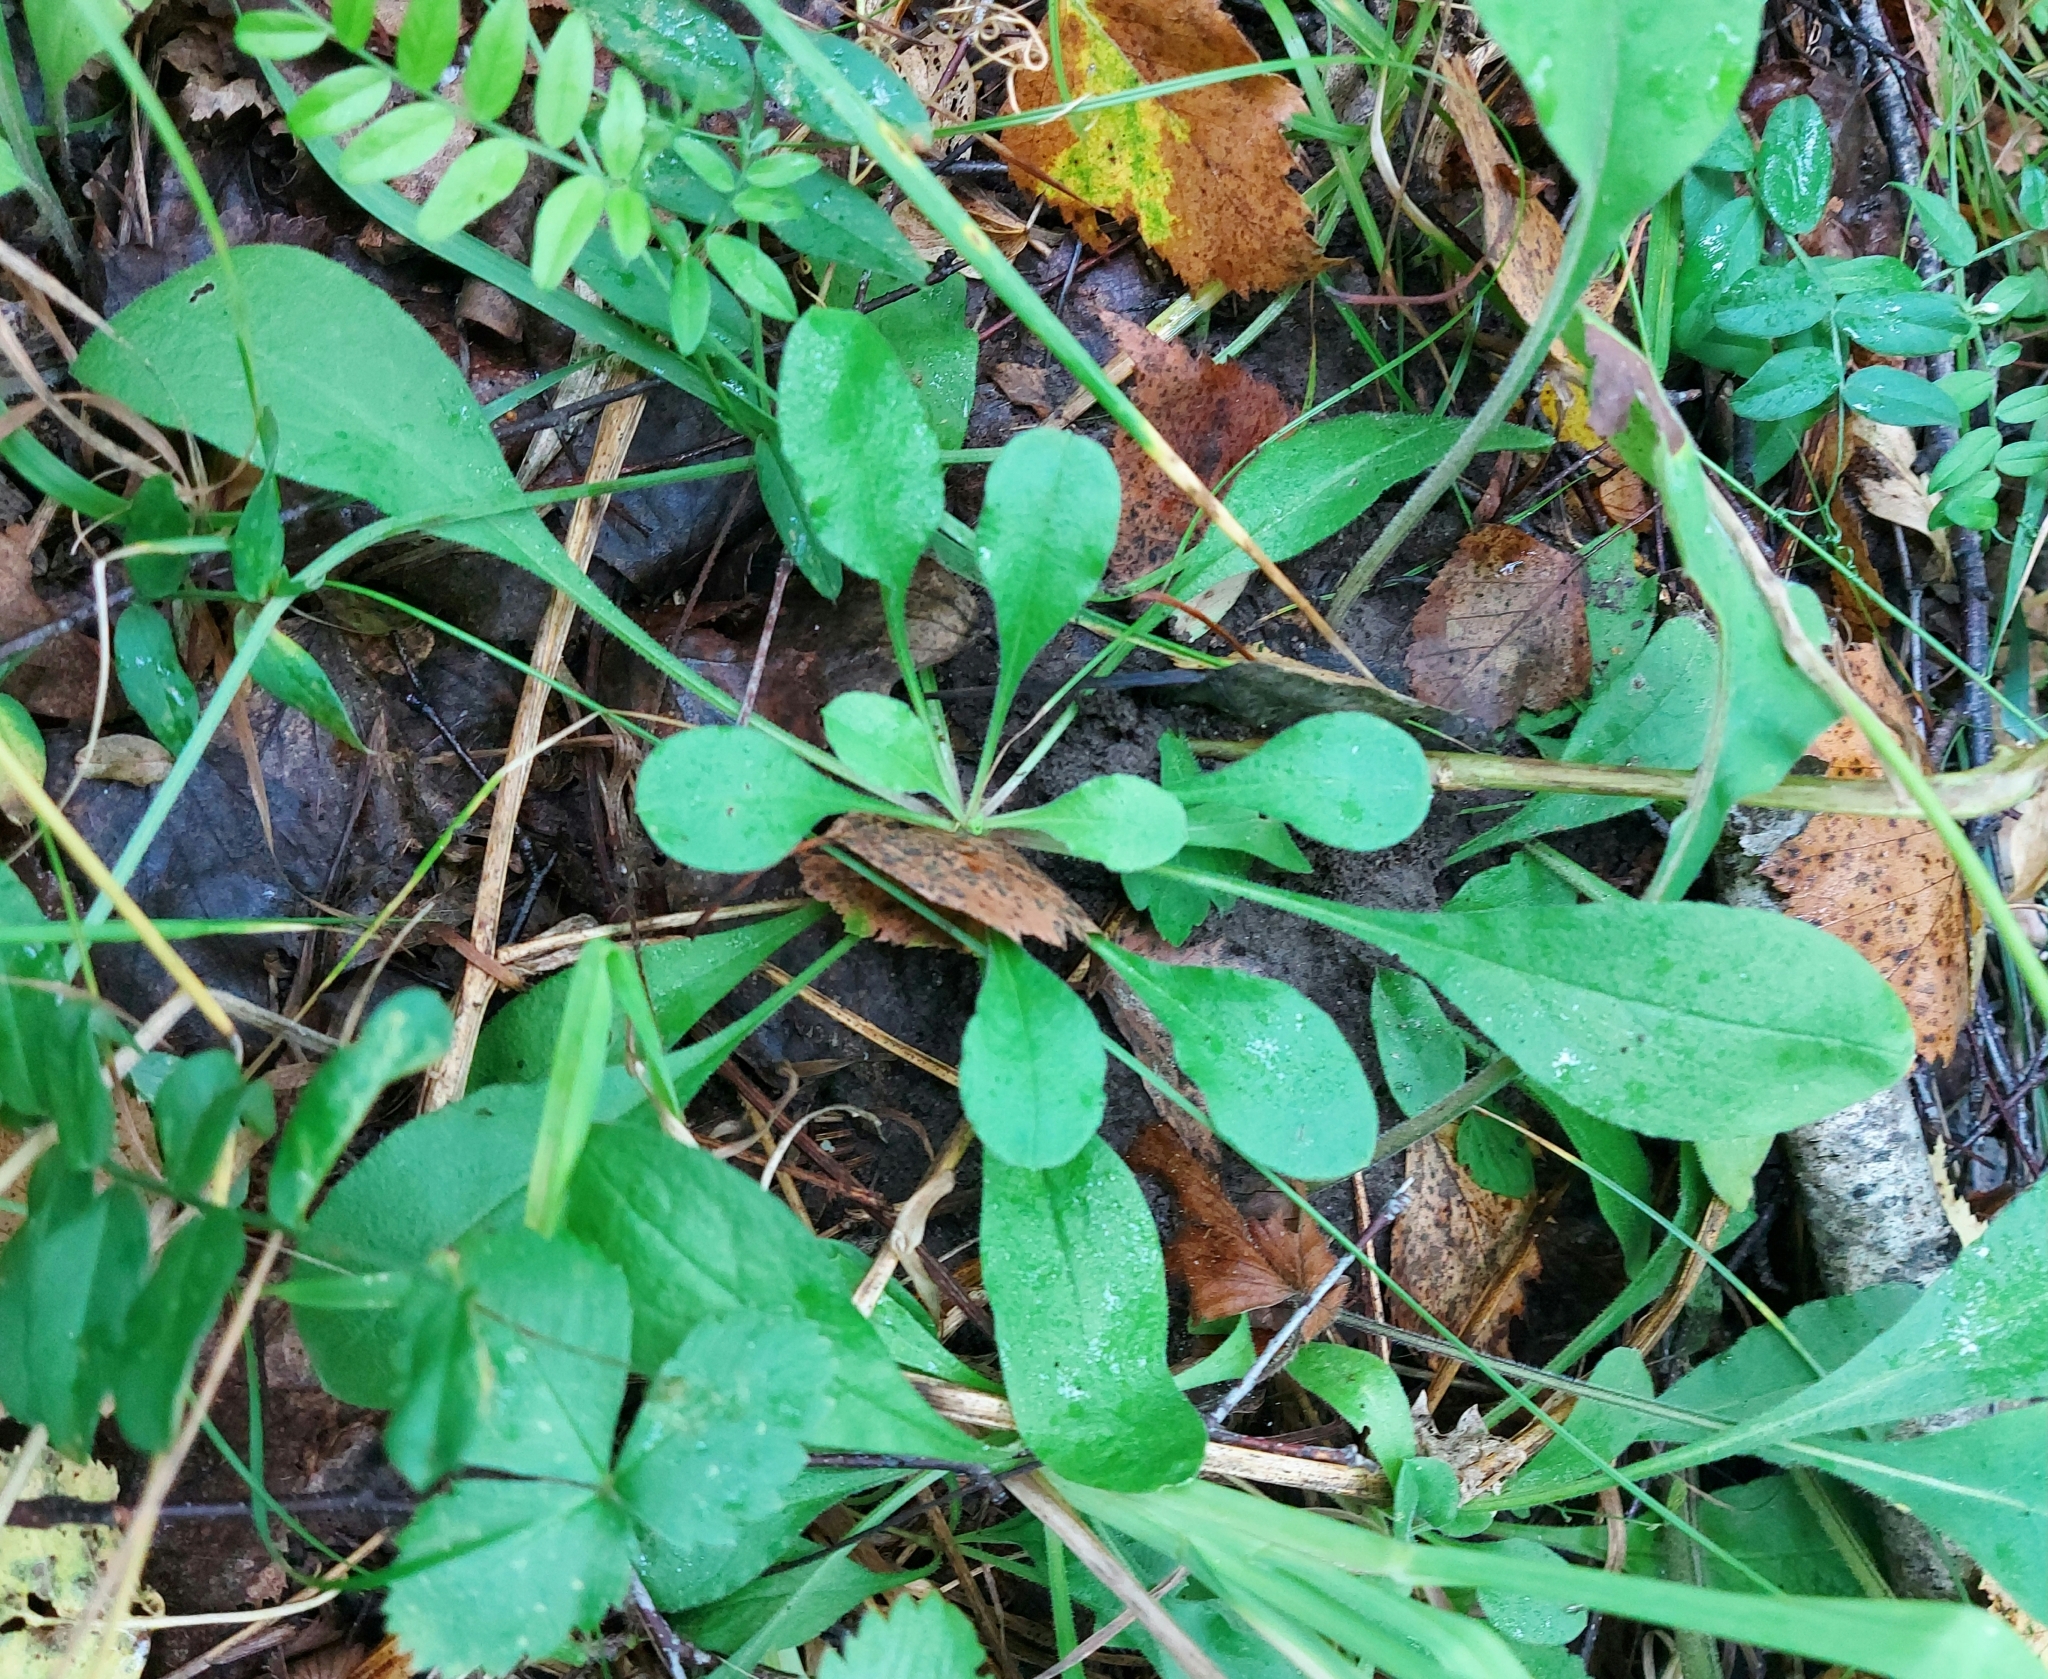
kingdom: Plantae
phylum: Tracheophyta
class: Magnoliopsida
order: Caryophyllales
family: Caryophyllaceae
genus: Silene
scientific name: Silene nutans
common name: Nottingham catchfly
